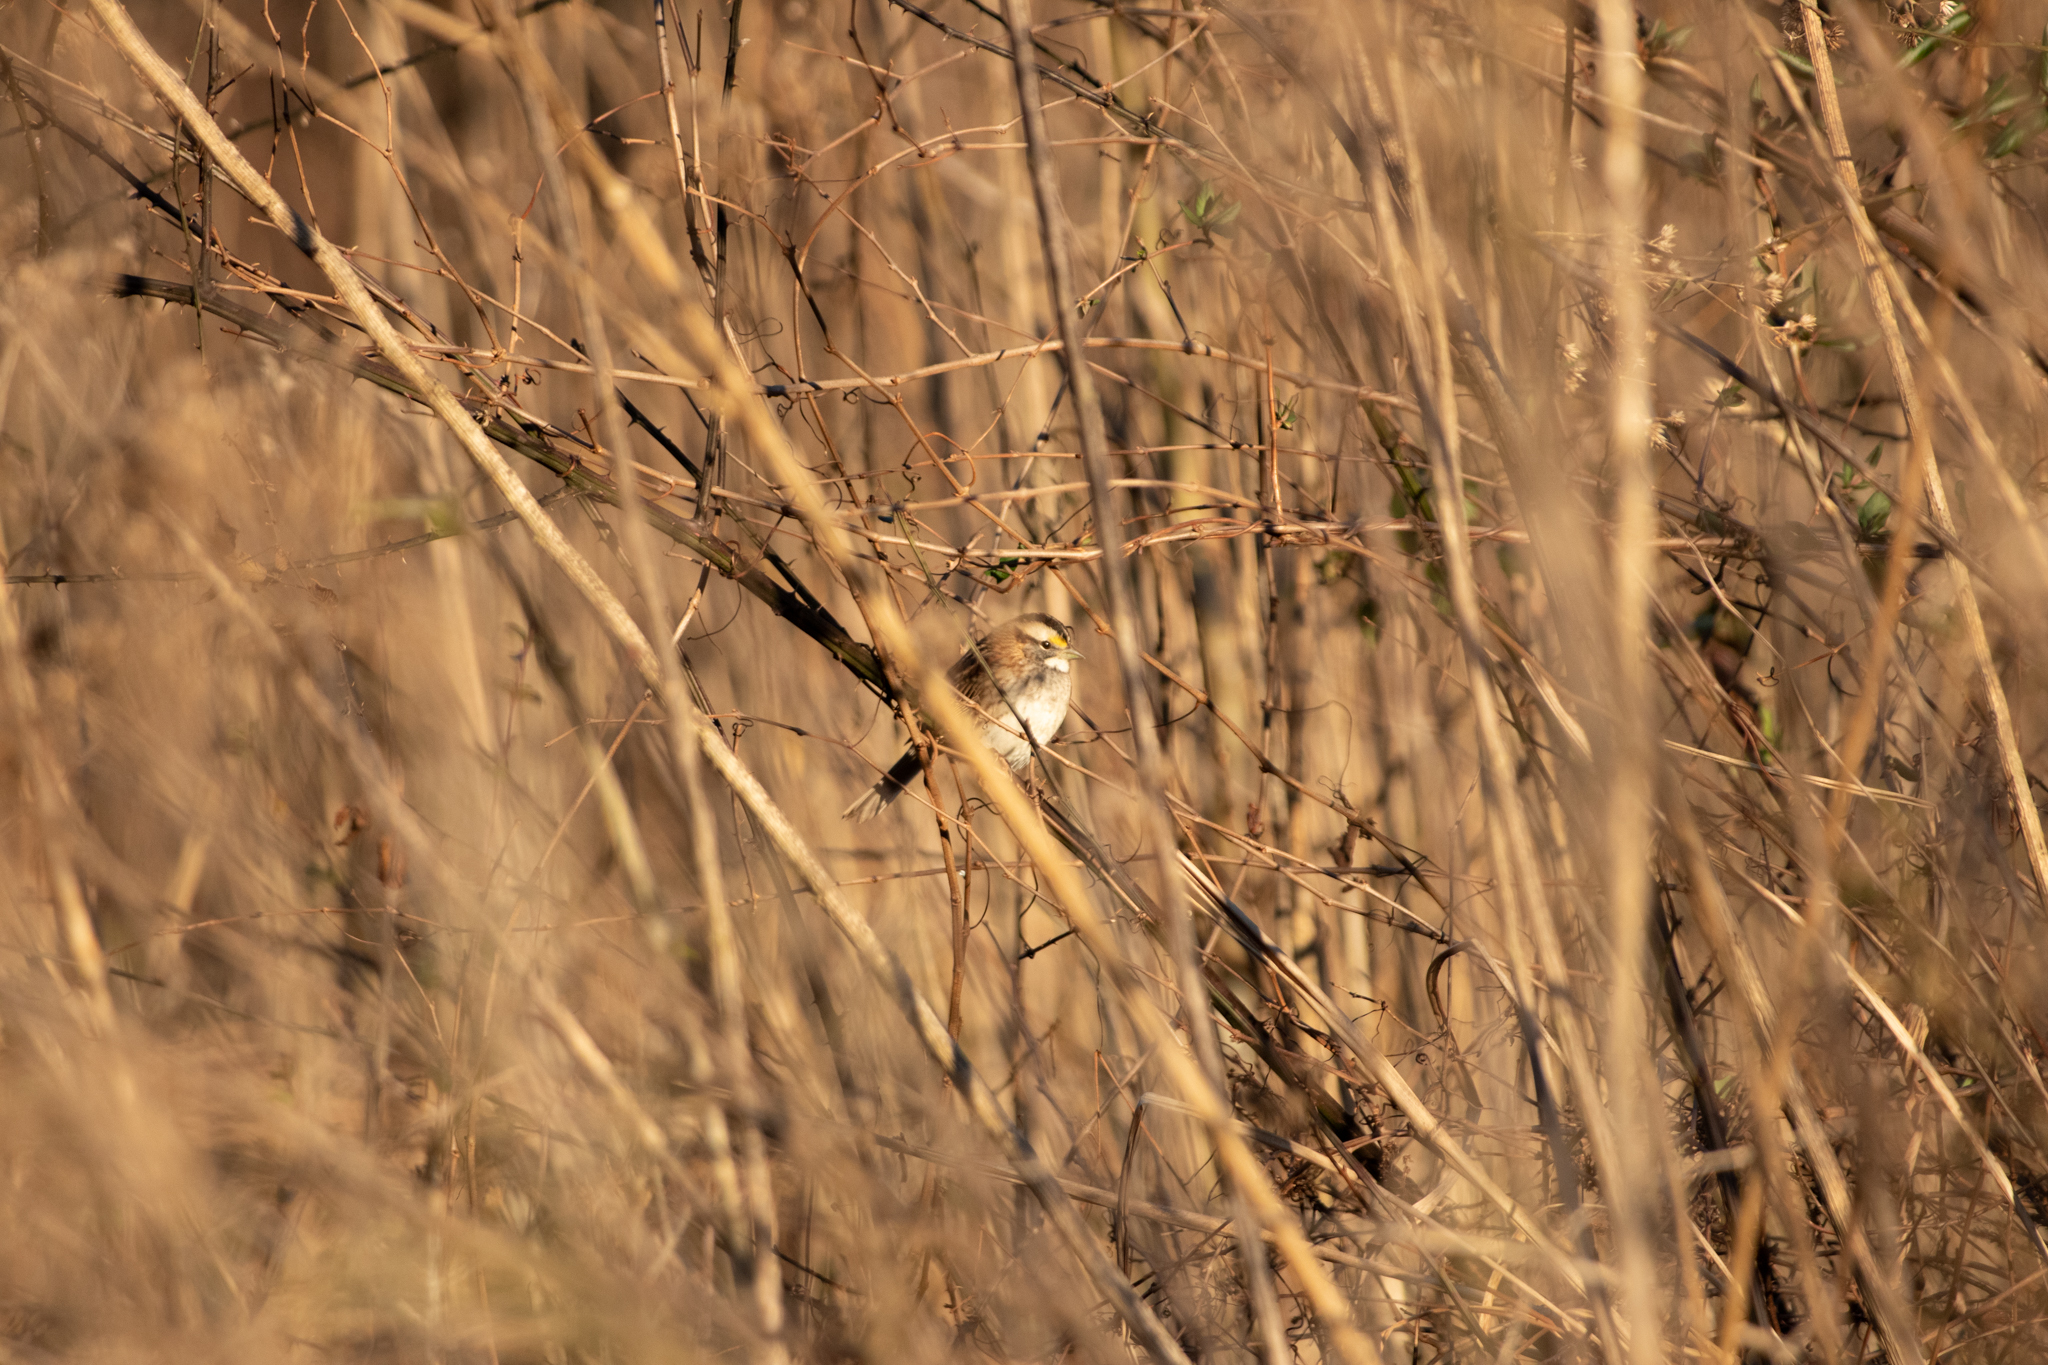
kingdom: Animalia
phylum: Chordata
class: Aves
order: Passeriformes
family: Passerellidae
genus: Zonotrichia
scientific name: Zonotrichia albicollis
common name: White-throated sparrow
